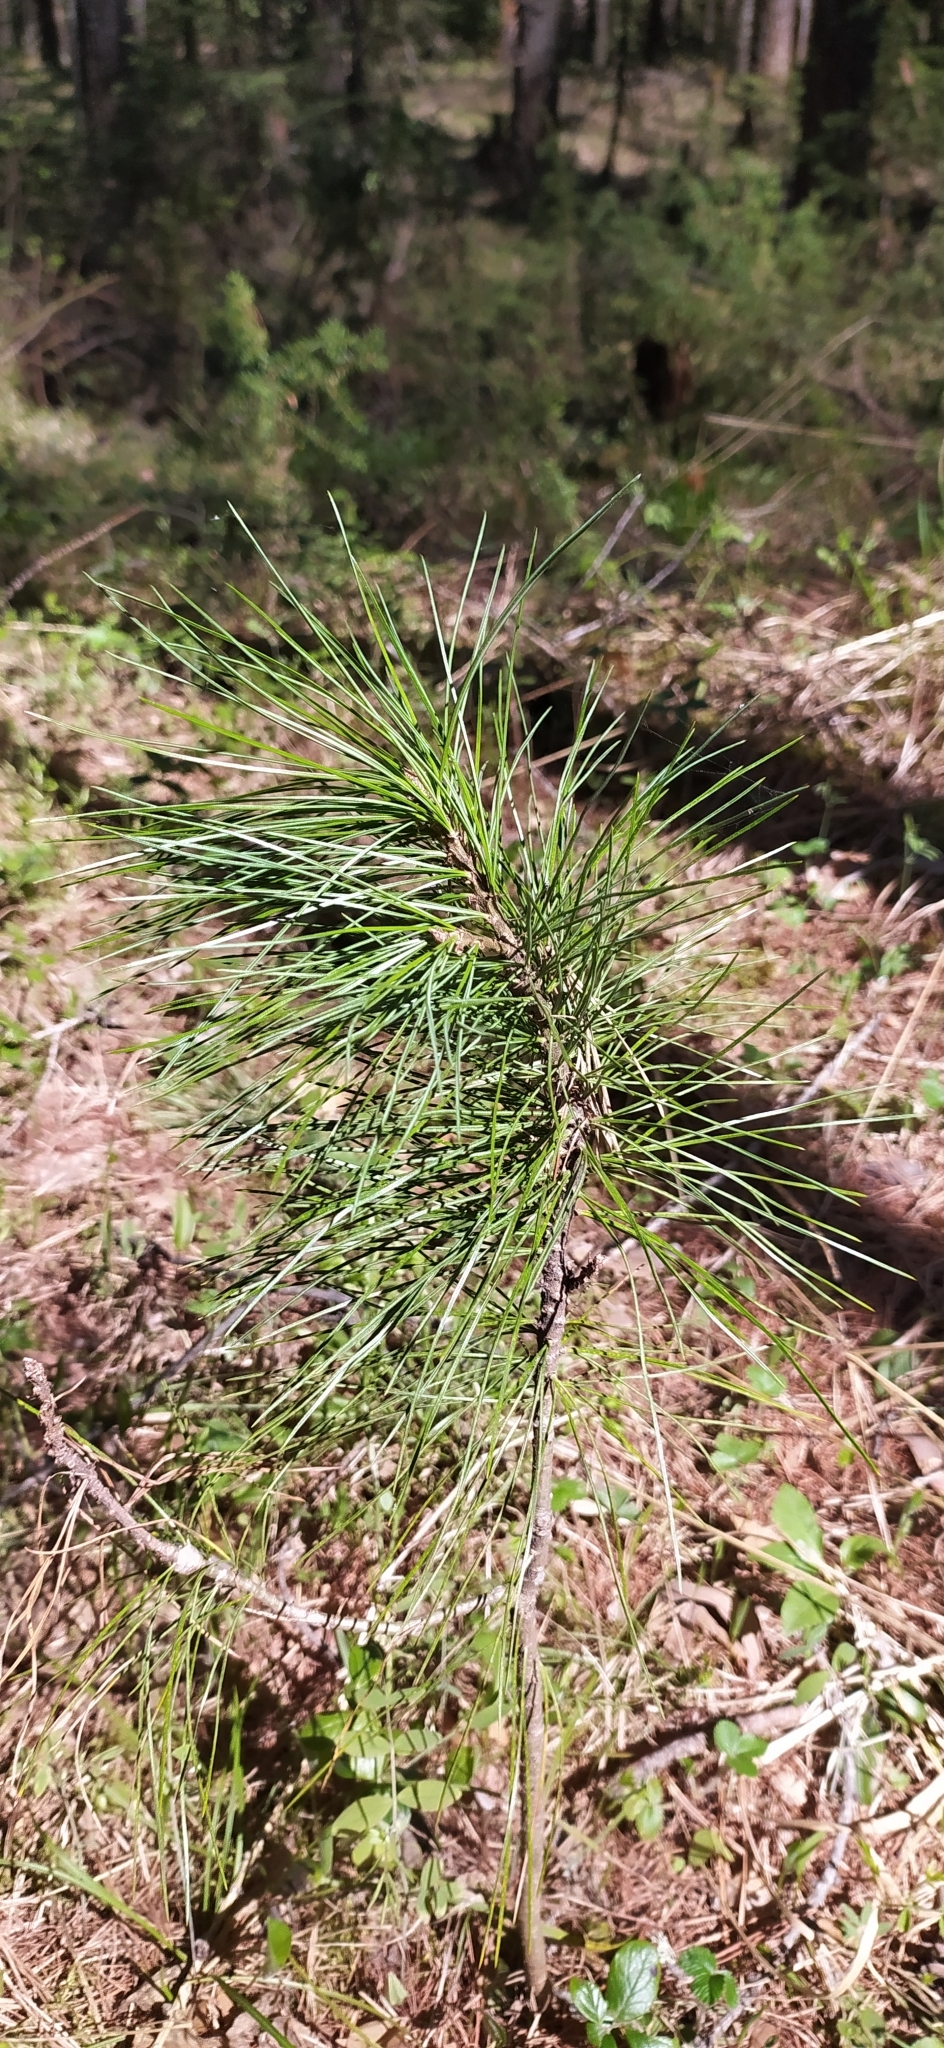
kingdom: Plantae
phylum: Tracheophyta
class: Pinopsida
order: Pinales
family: Pinaceae
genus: Pinus
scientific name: Pinus sibirica
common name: Siberian pine
